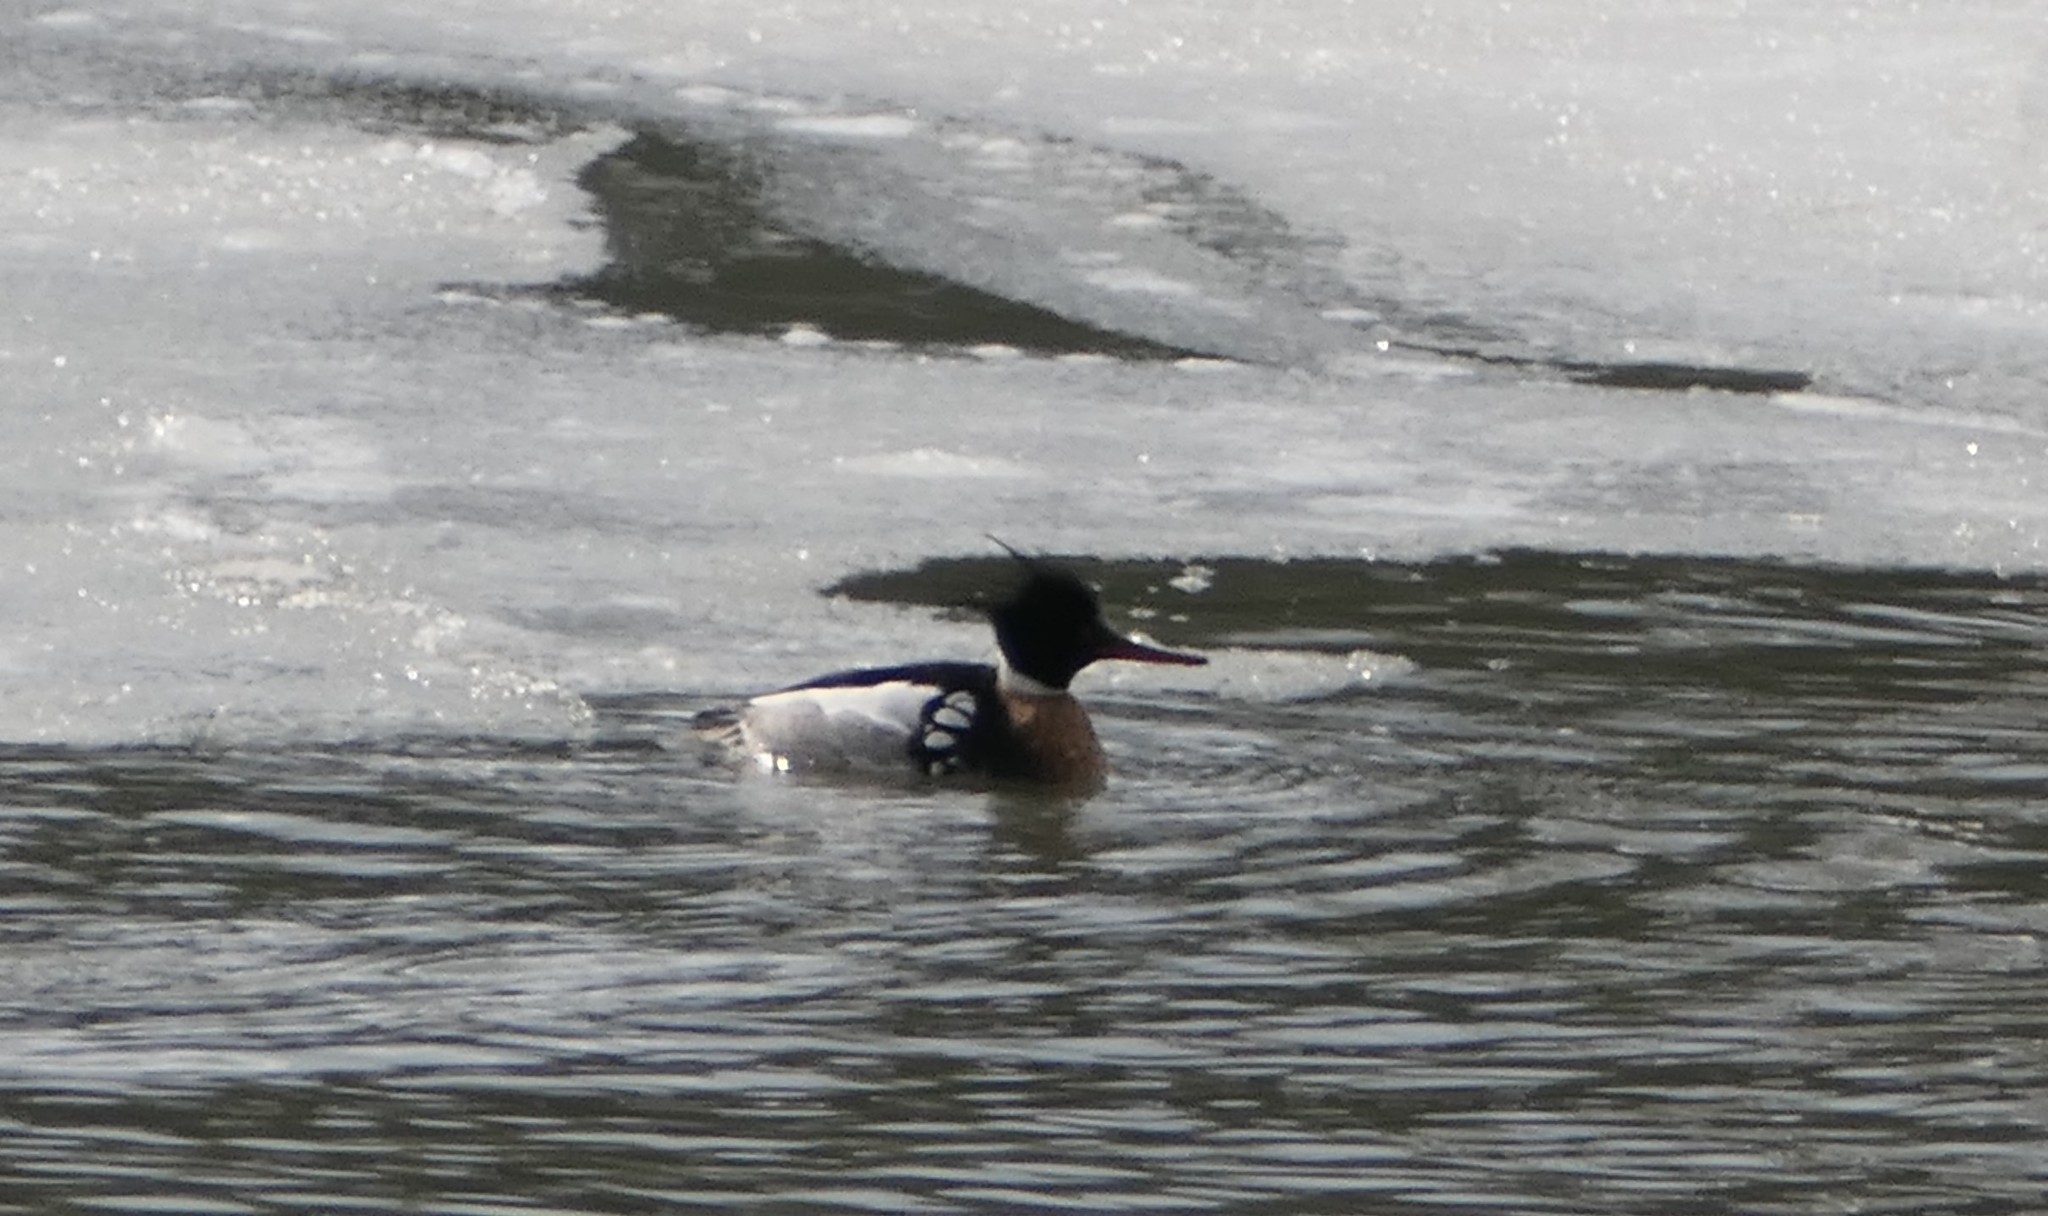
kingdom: Animalia
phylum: Chordata
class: Aves
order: Anseriformes
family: Anatidae
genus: Mergus
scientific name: Mergus serrator
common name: Red-breasted merganser
